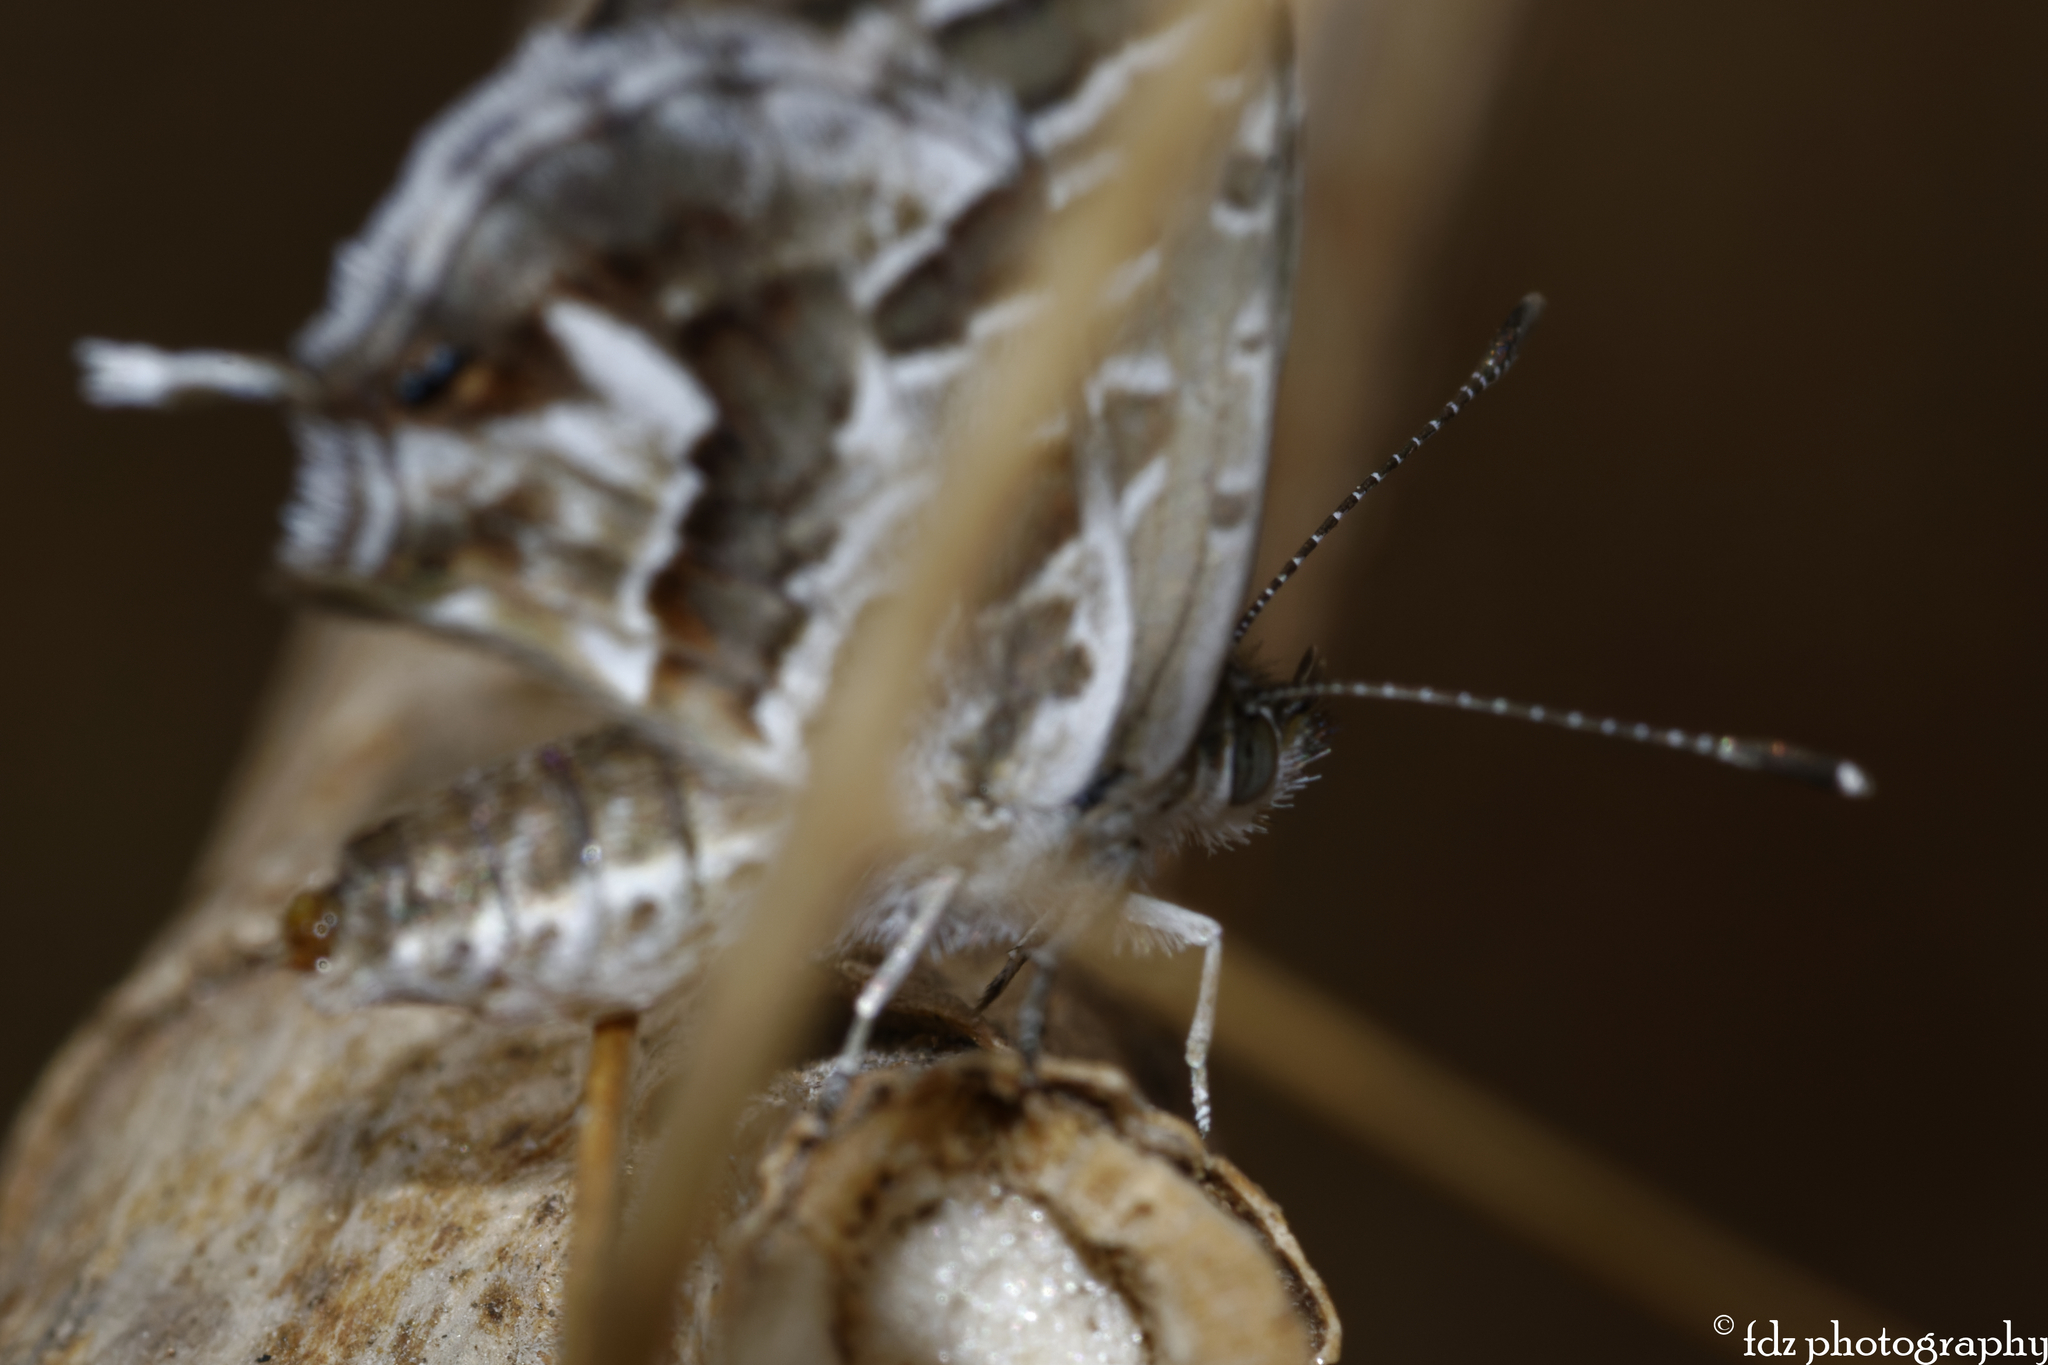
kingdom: Animalia
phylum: Arthropoda
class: Insecta
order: Lepidoptera
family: Lycaenidae
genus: Cacyreus
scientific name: Cacyreus marshalli
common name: Geranium bronze
